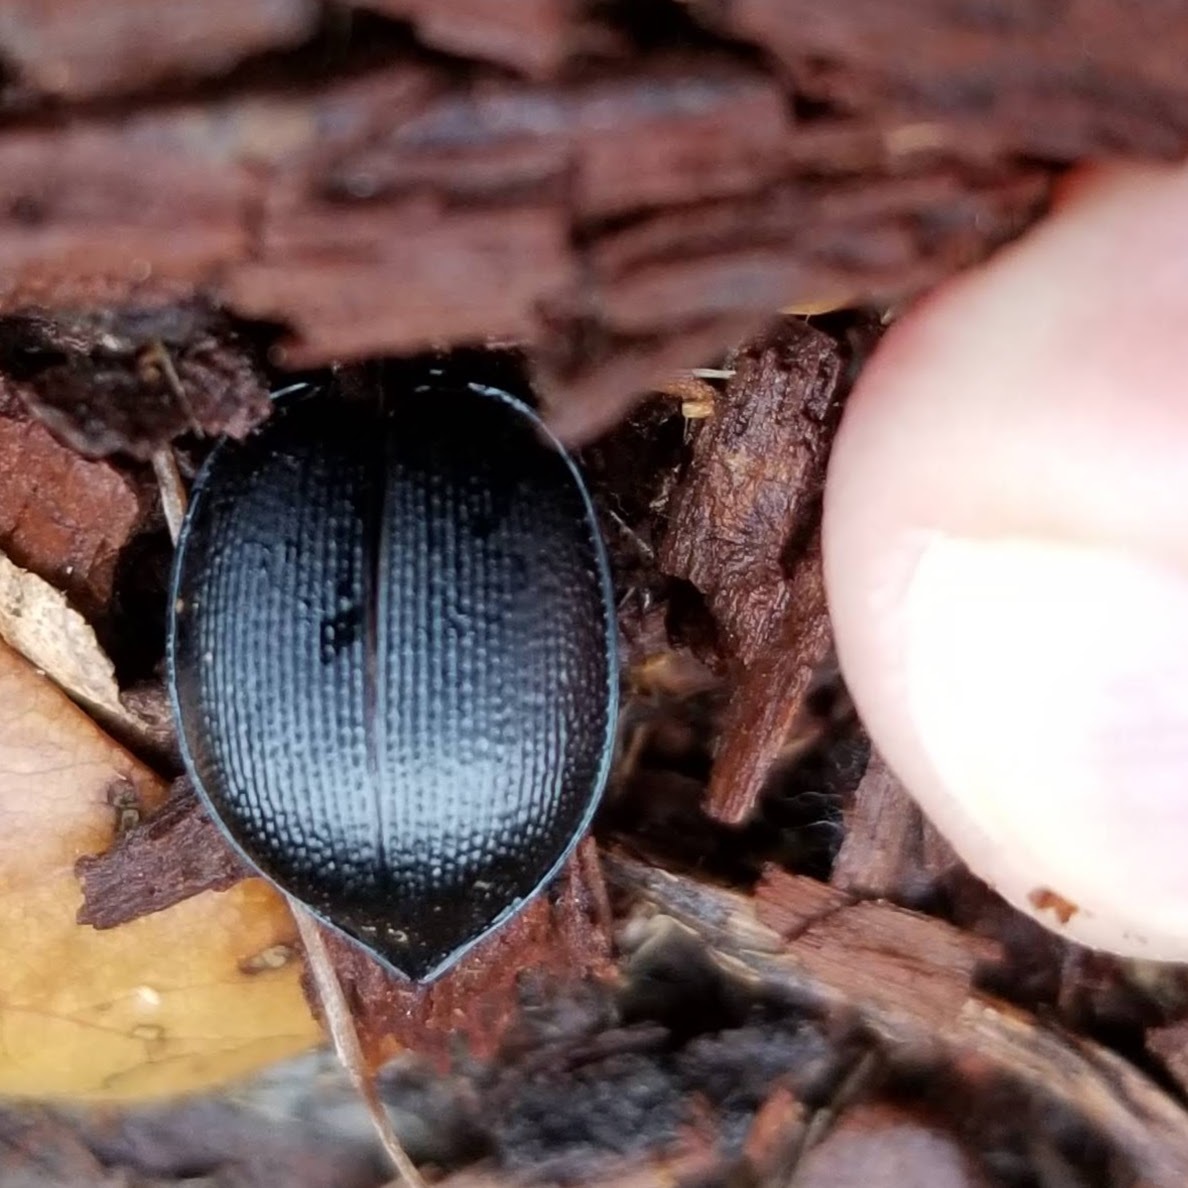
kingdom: Animalia
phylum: Arthropoda
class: Insecta
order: Coleoptera
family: Carabidae
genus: Scaphinotus
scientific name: Scaphinotus
